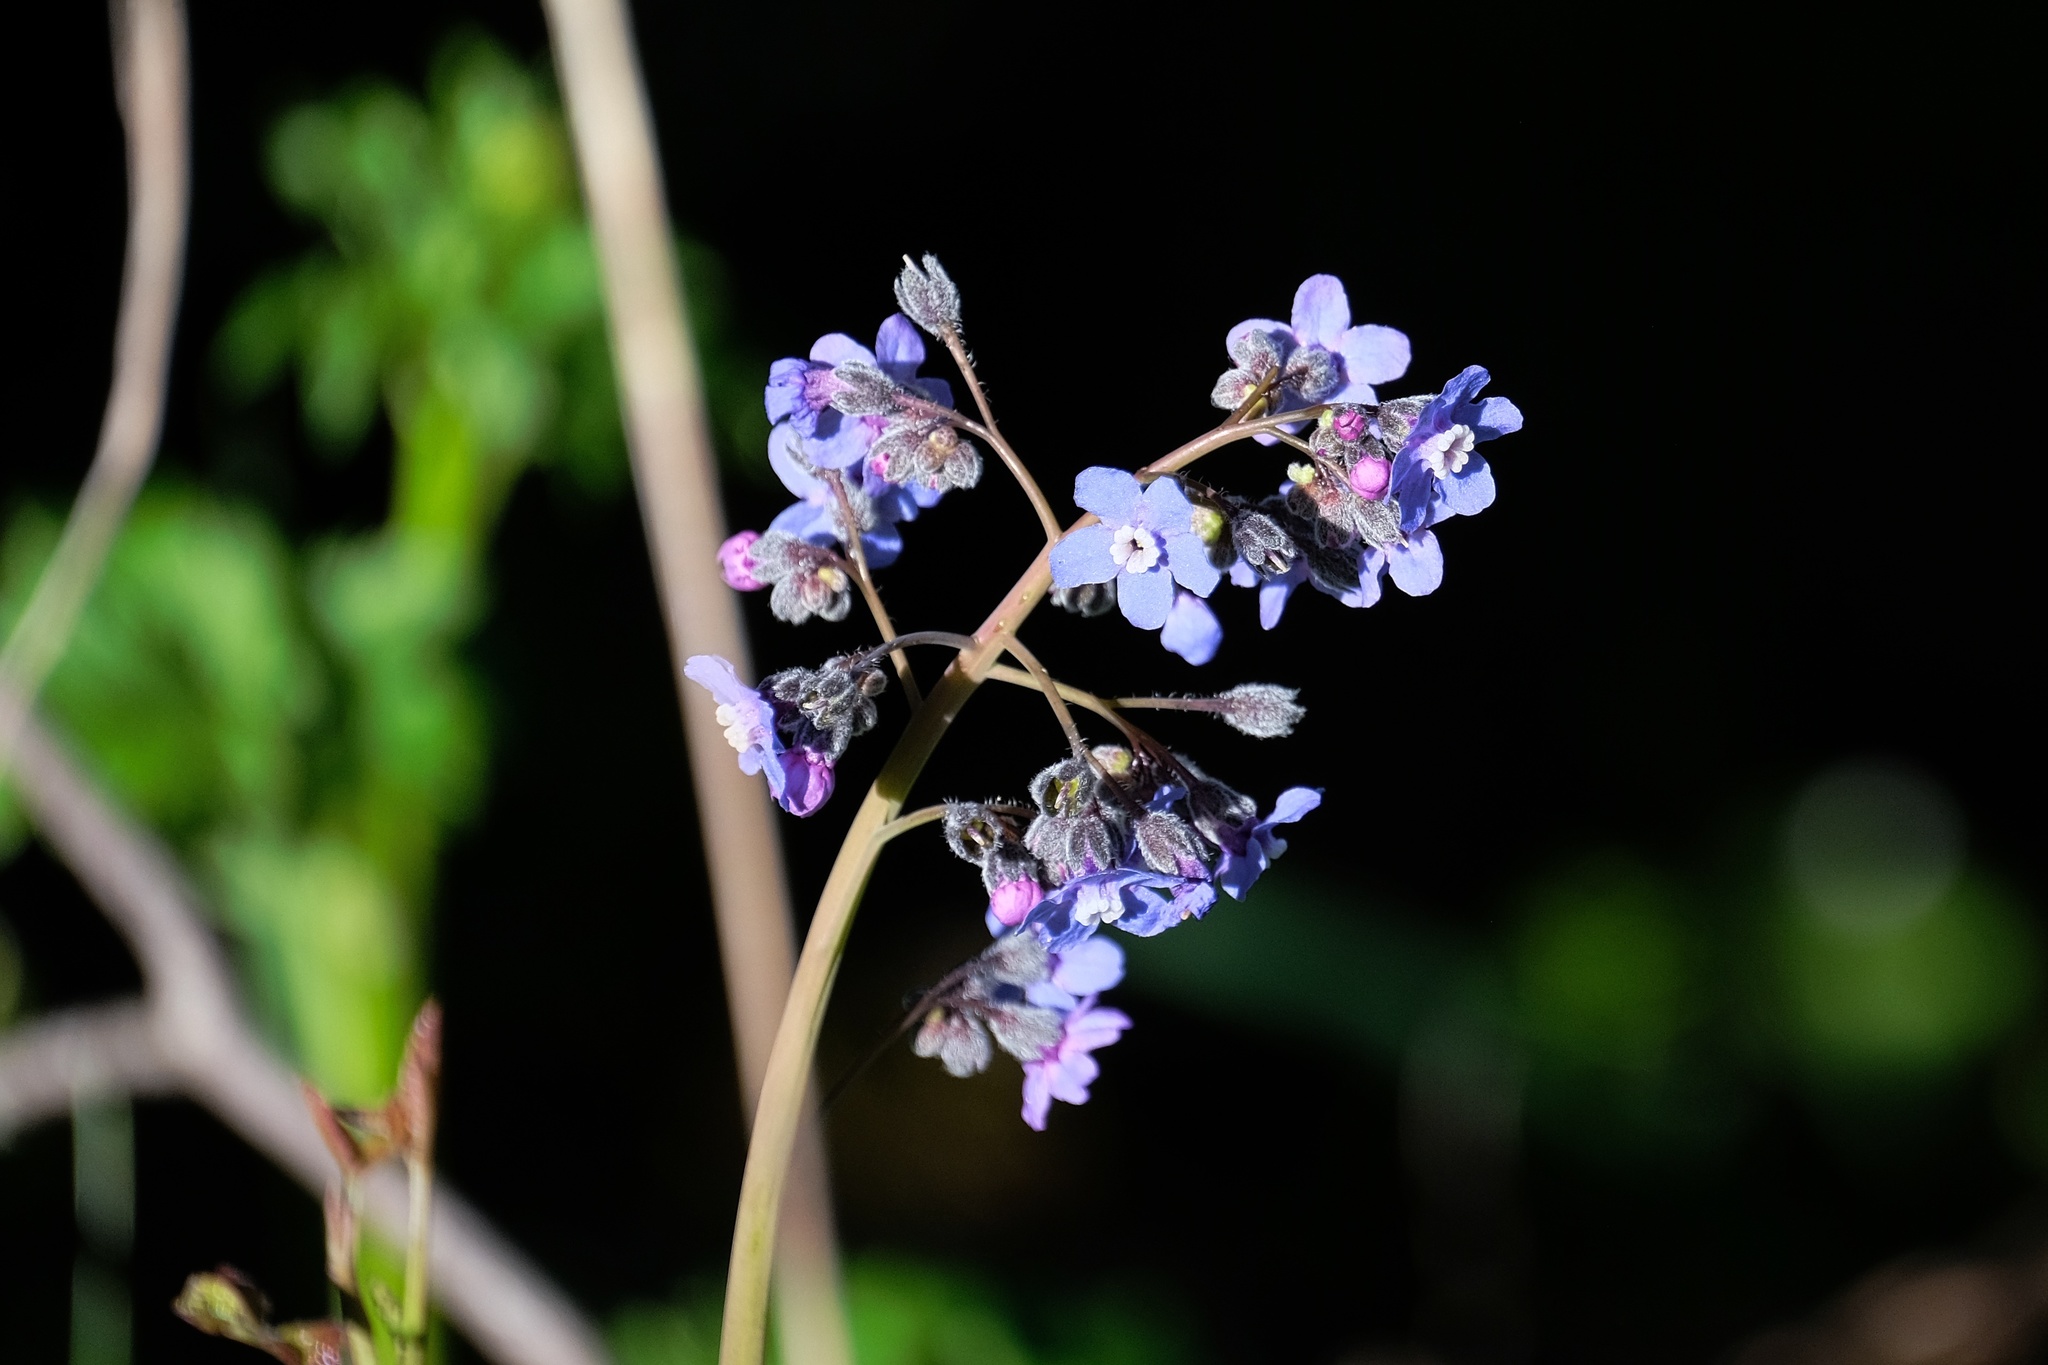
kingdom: Plantae
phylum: Tracheophyta
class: Magnoliopsida
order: Boraginales
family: Boraginaceae
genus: Adelinia
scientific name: Adelinia grande
